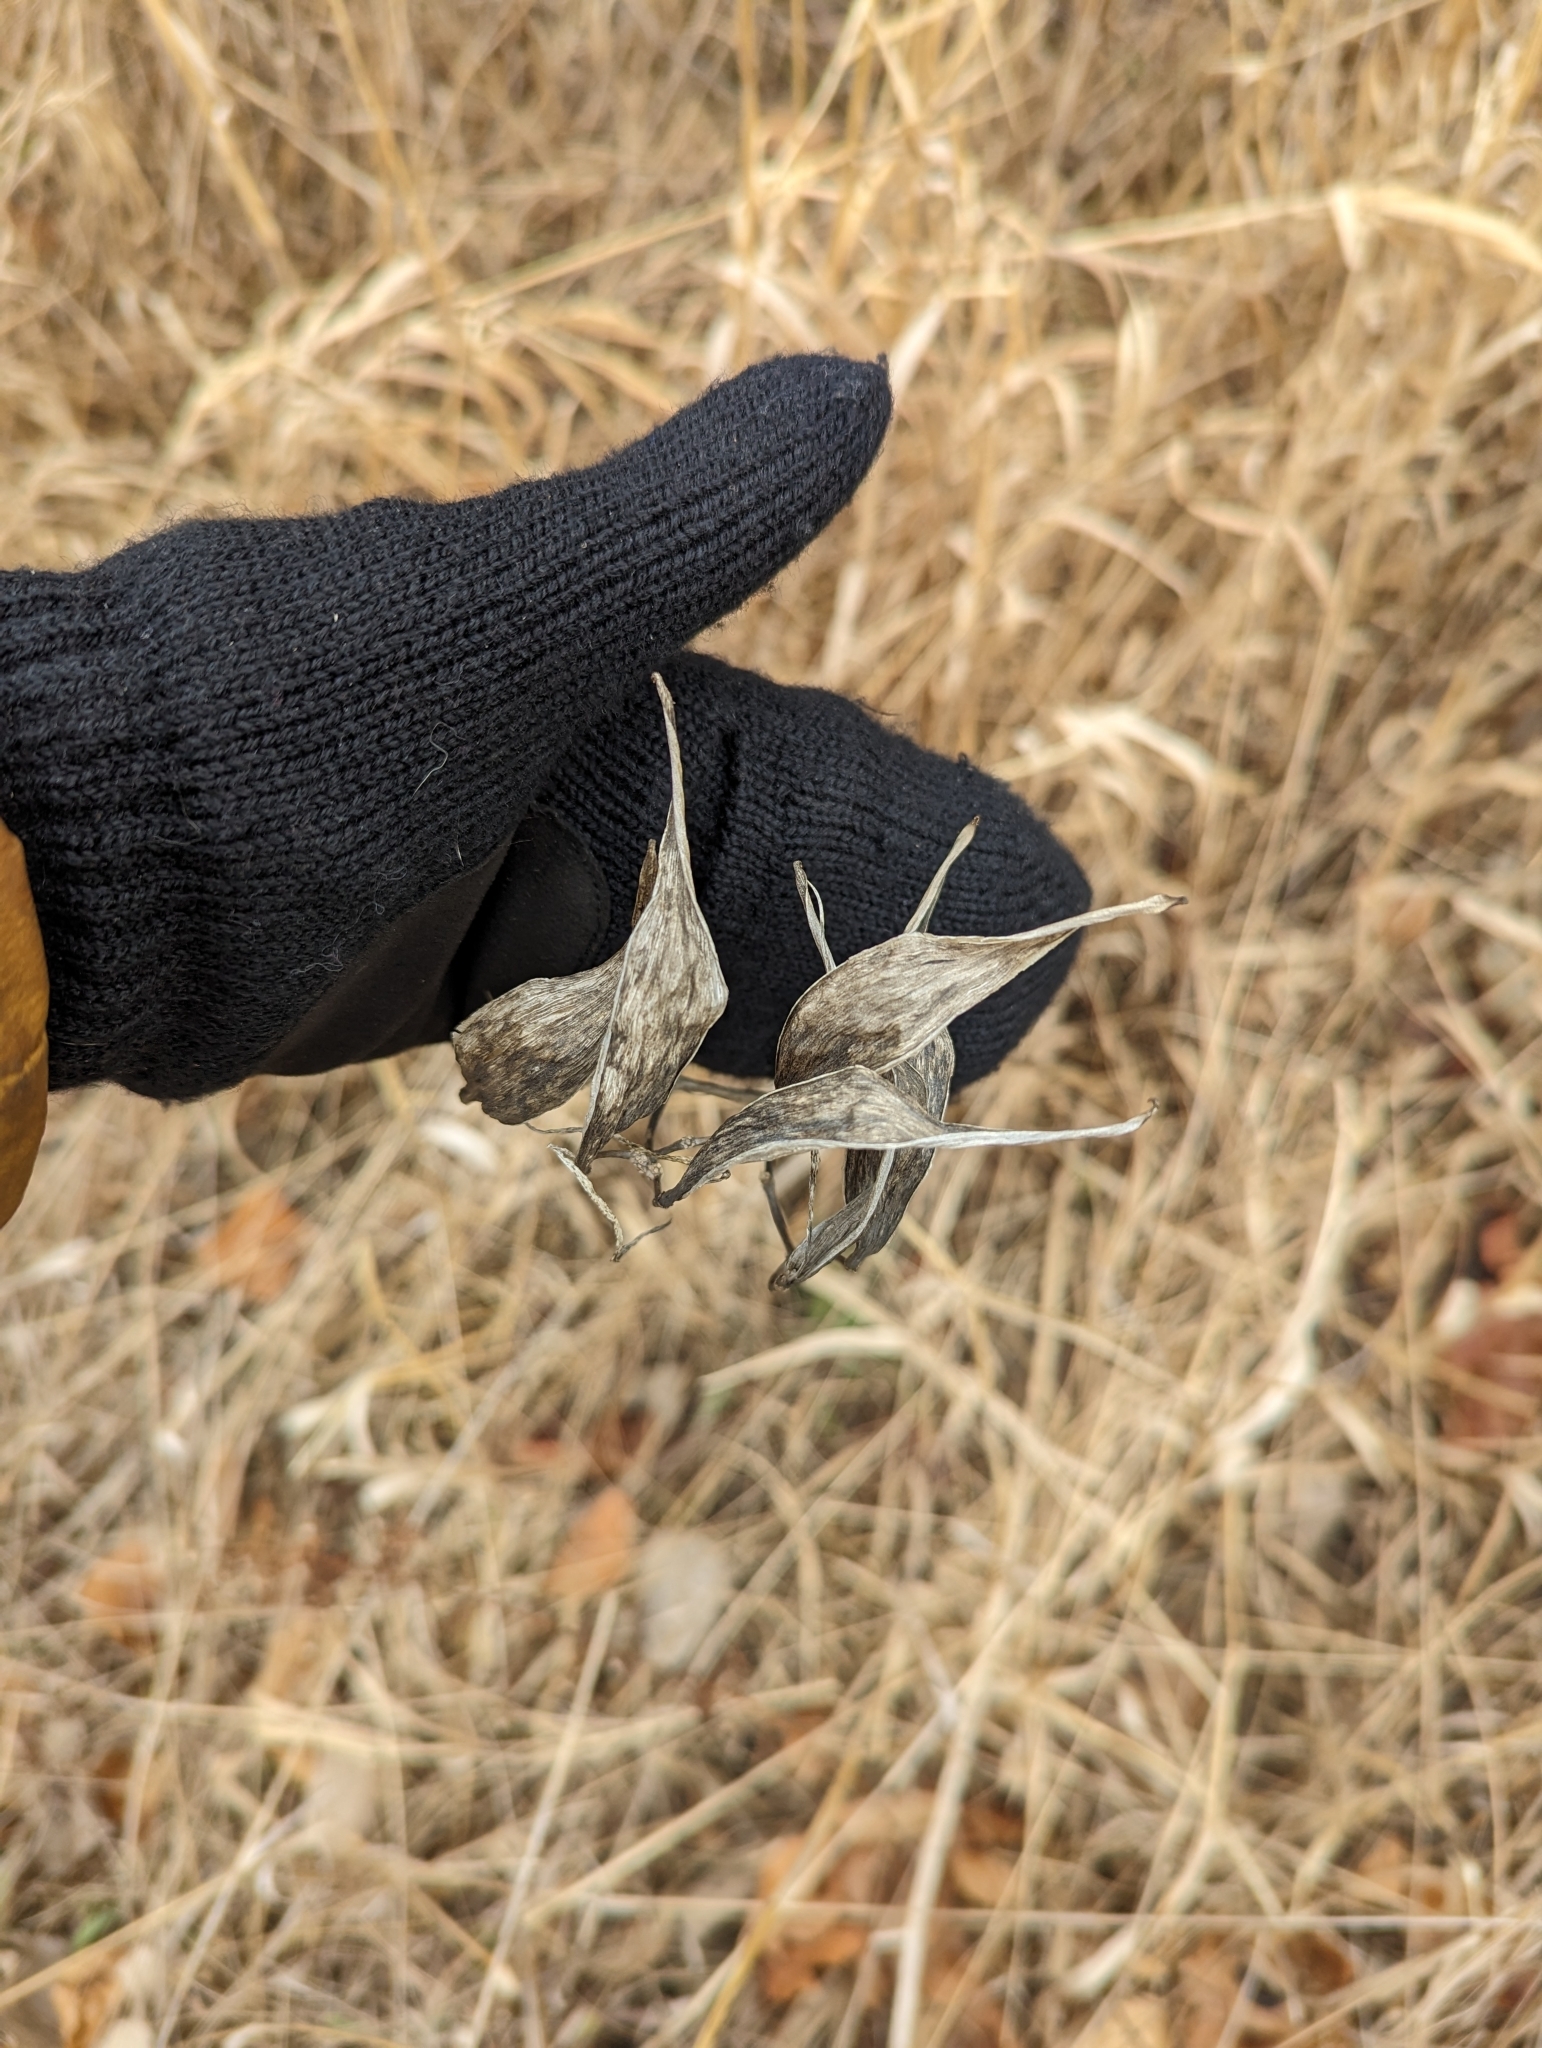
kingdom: Plantae
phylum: Tracheophyta
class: Magnoliopsida
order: Gentianales
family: Apocynaceae
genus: Asclepias
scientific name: Asclepias incarnata
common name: Swamp milkweed
